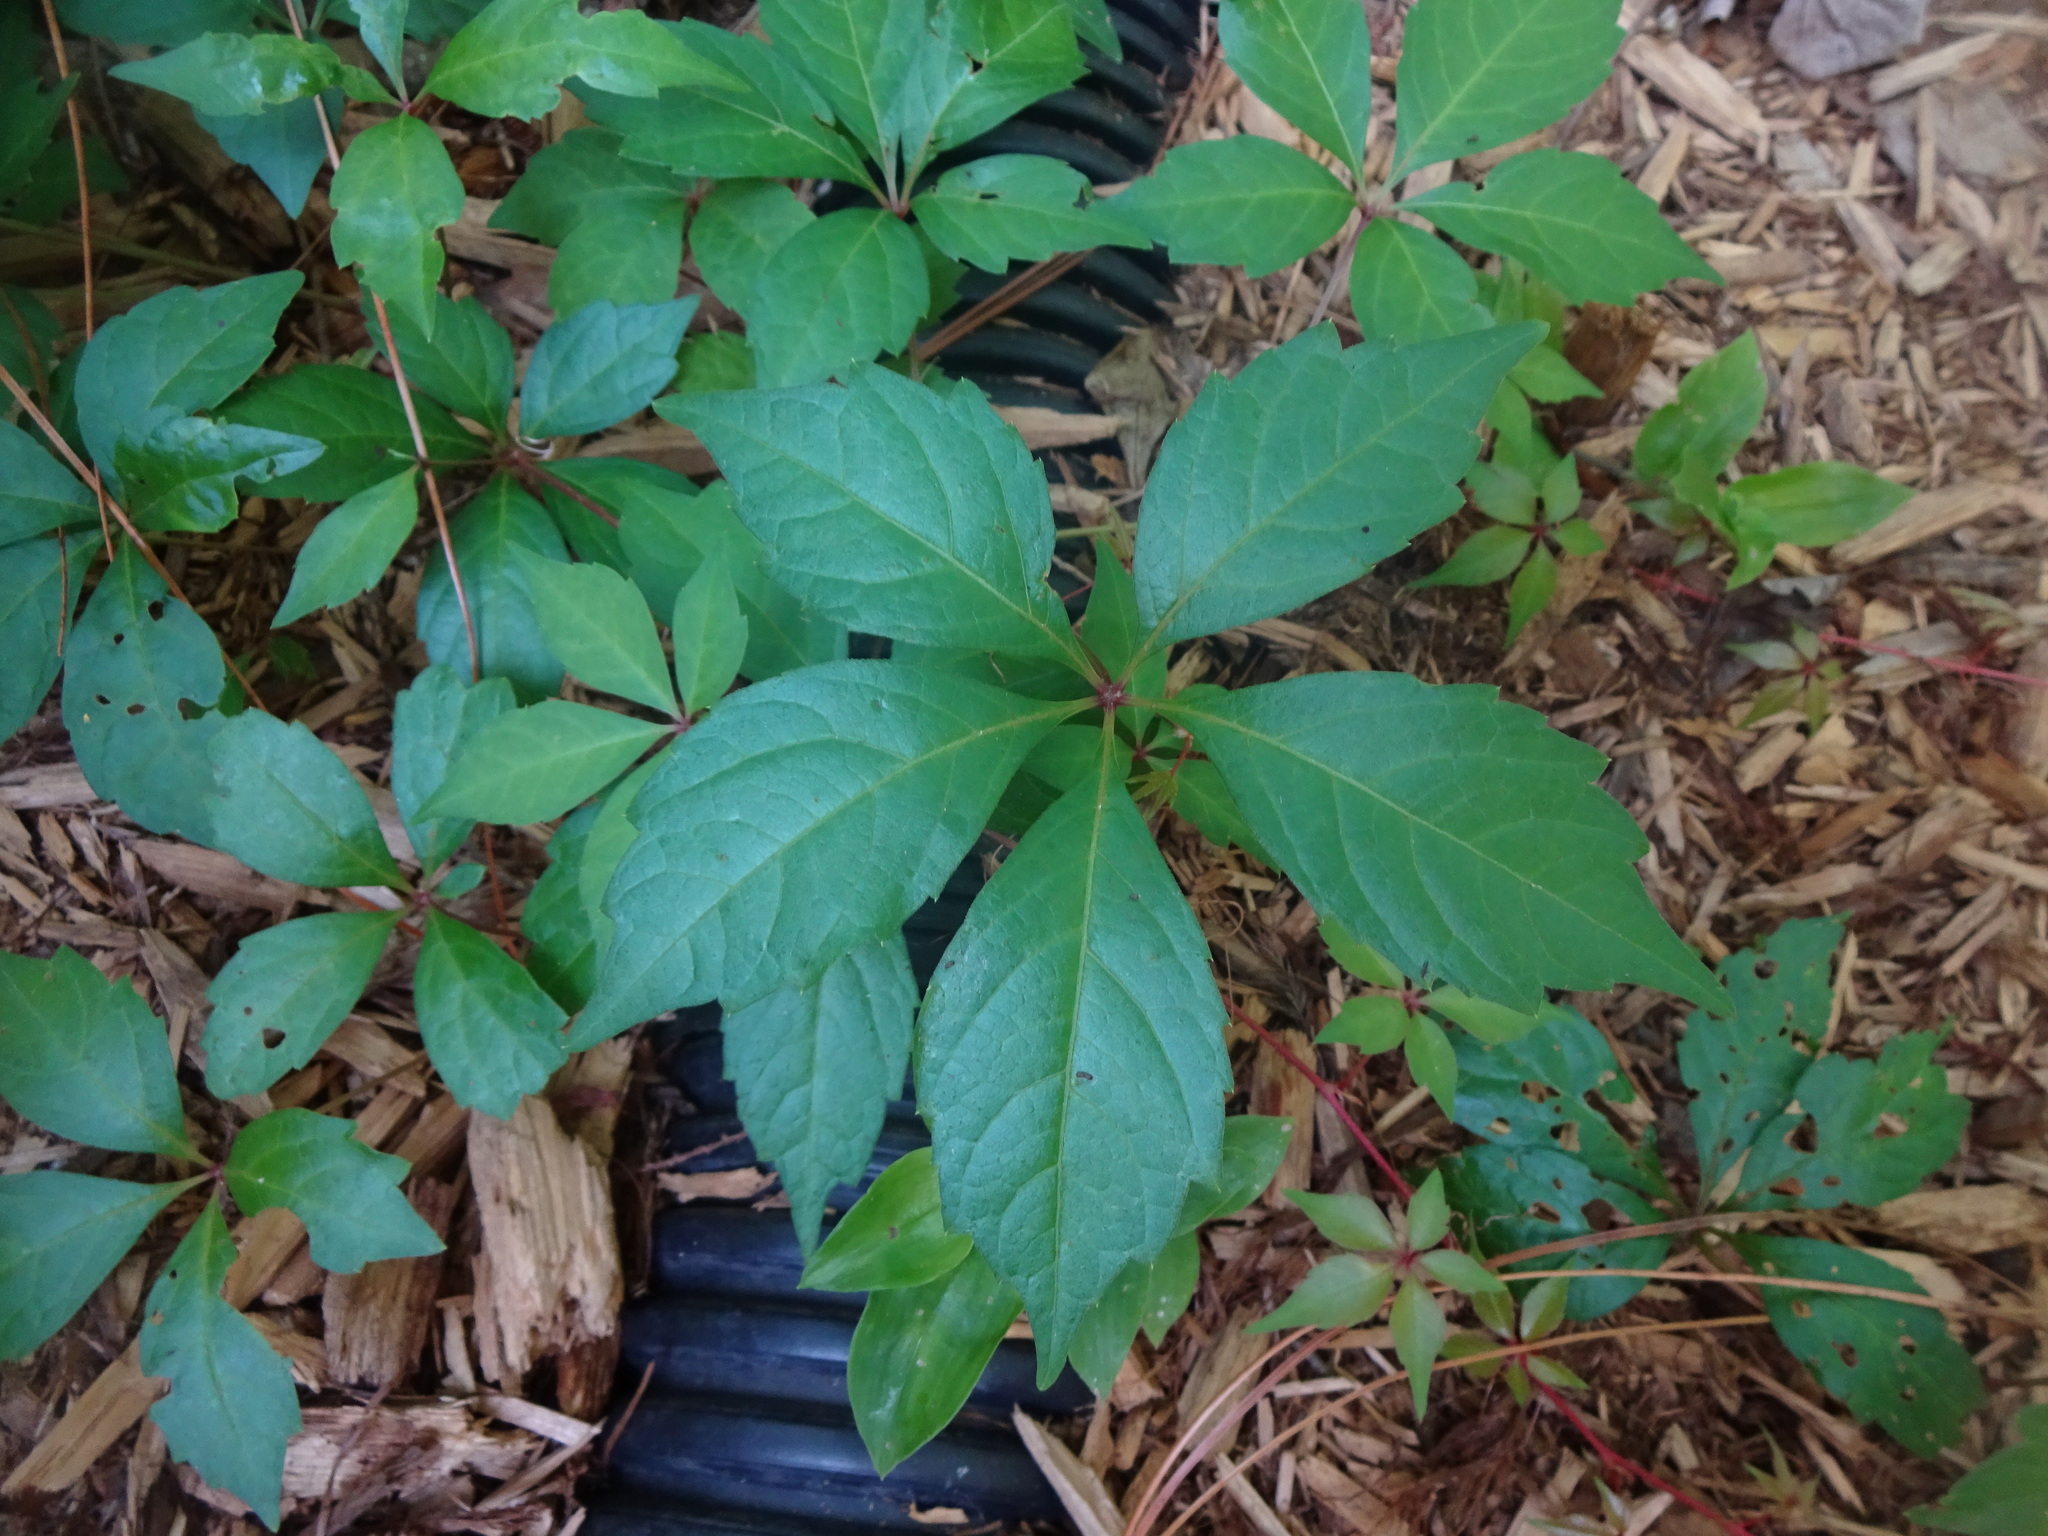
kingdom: Plantae
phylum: Tracheophyta
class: Magnoliopsida
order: Vitales
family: Vitaceae
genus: Parthenocissus
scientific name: Parthenocissus quinquefolia
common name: Virginia-creeper
